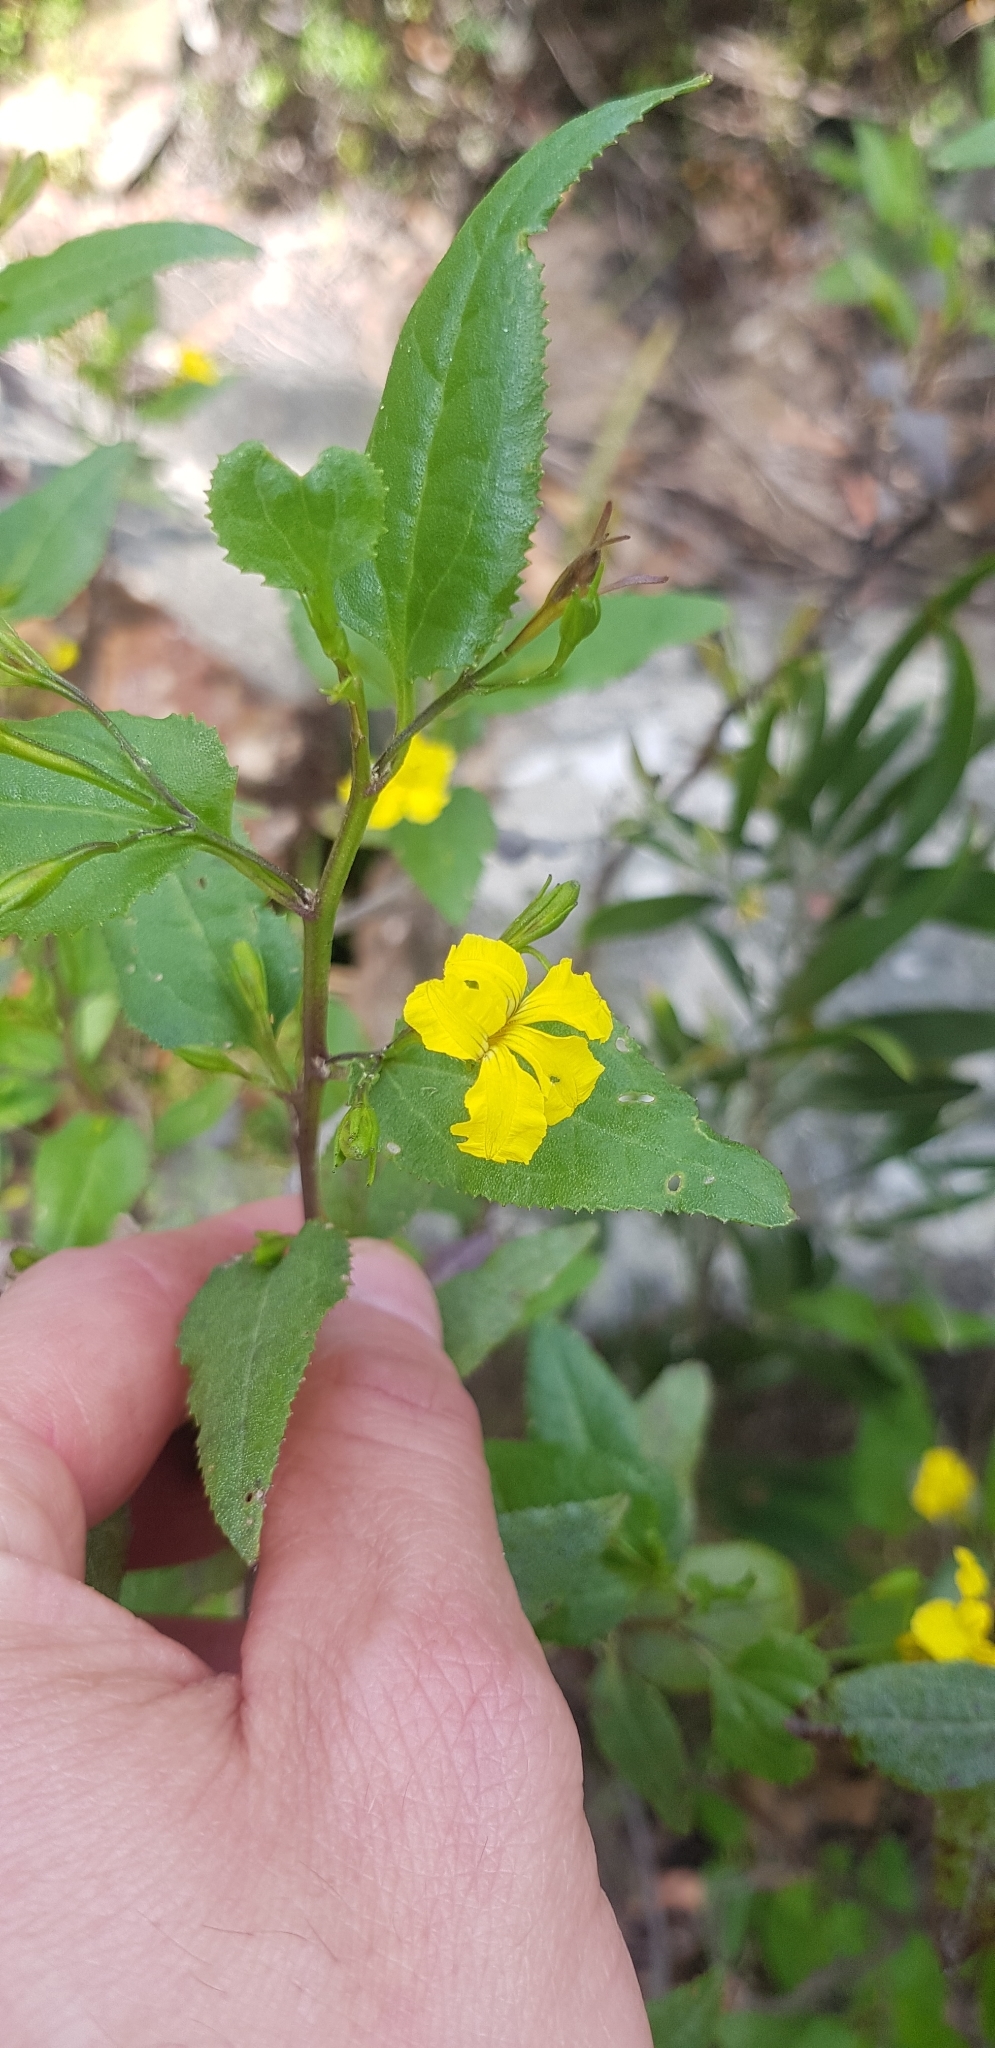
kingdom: Plantae
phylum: Tracheophyta
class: Magnoliopsida
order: Asterales
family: Goodeniaceae
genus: Goodenia
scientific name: Goodenia ovata
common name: Hop goodenia
